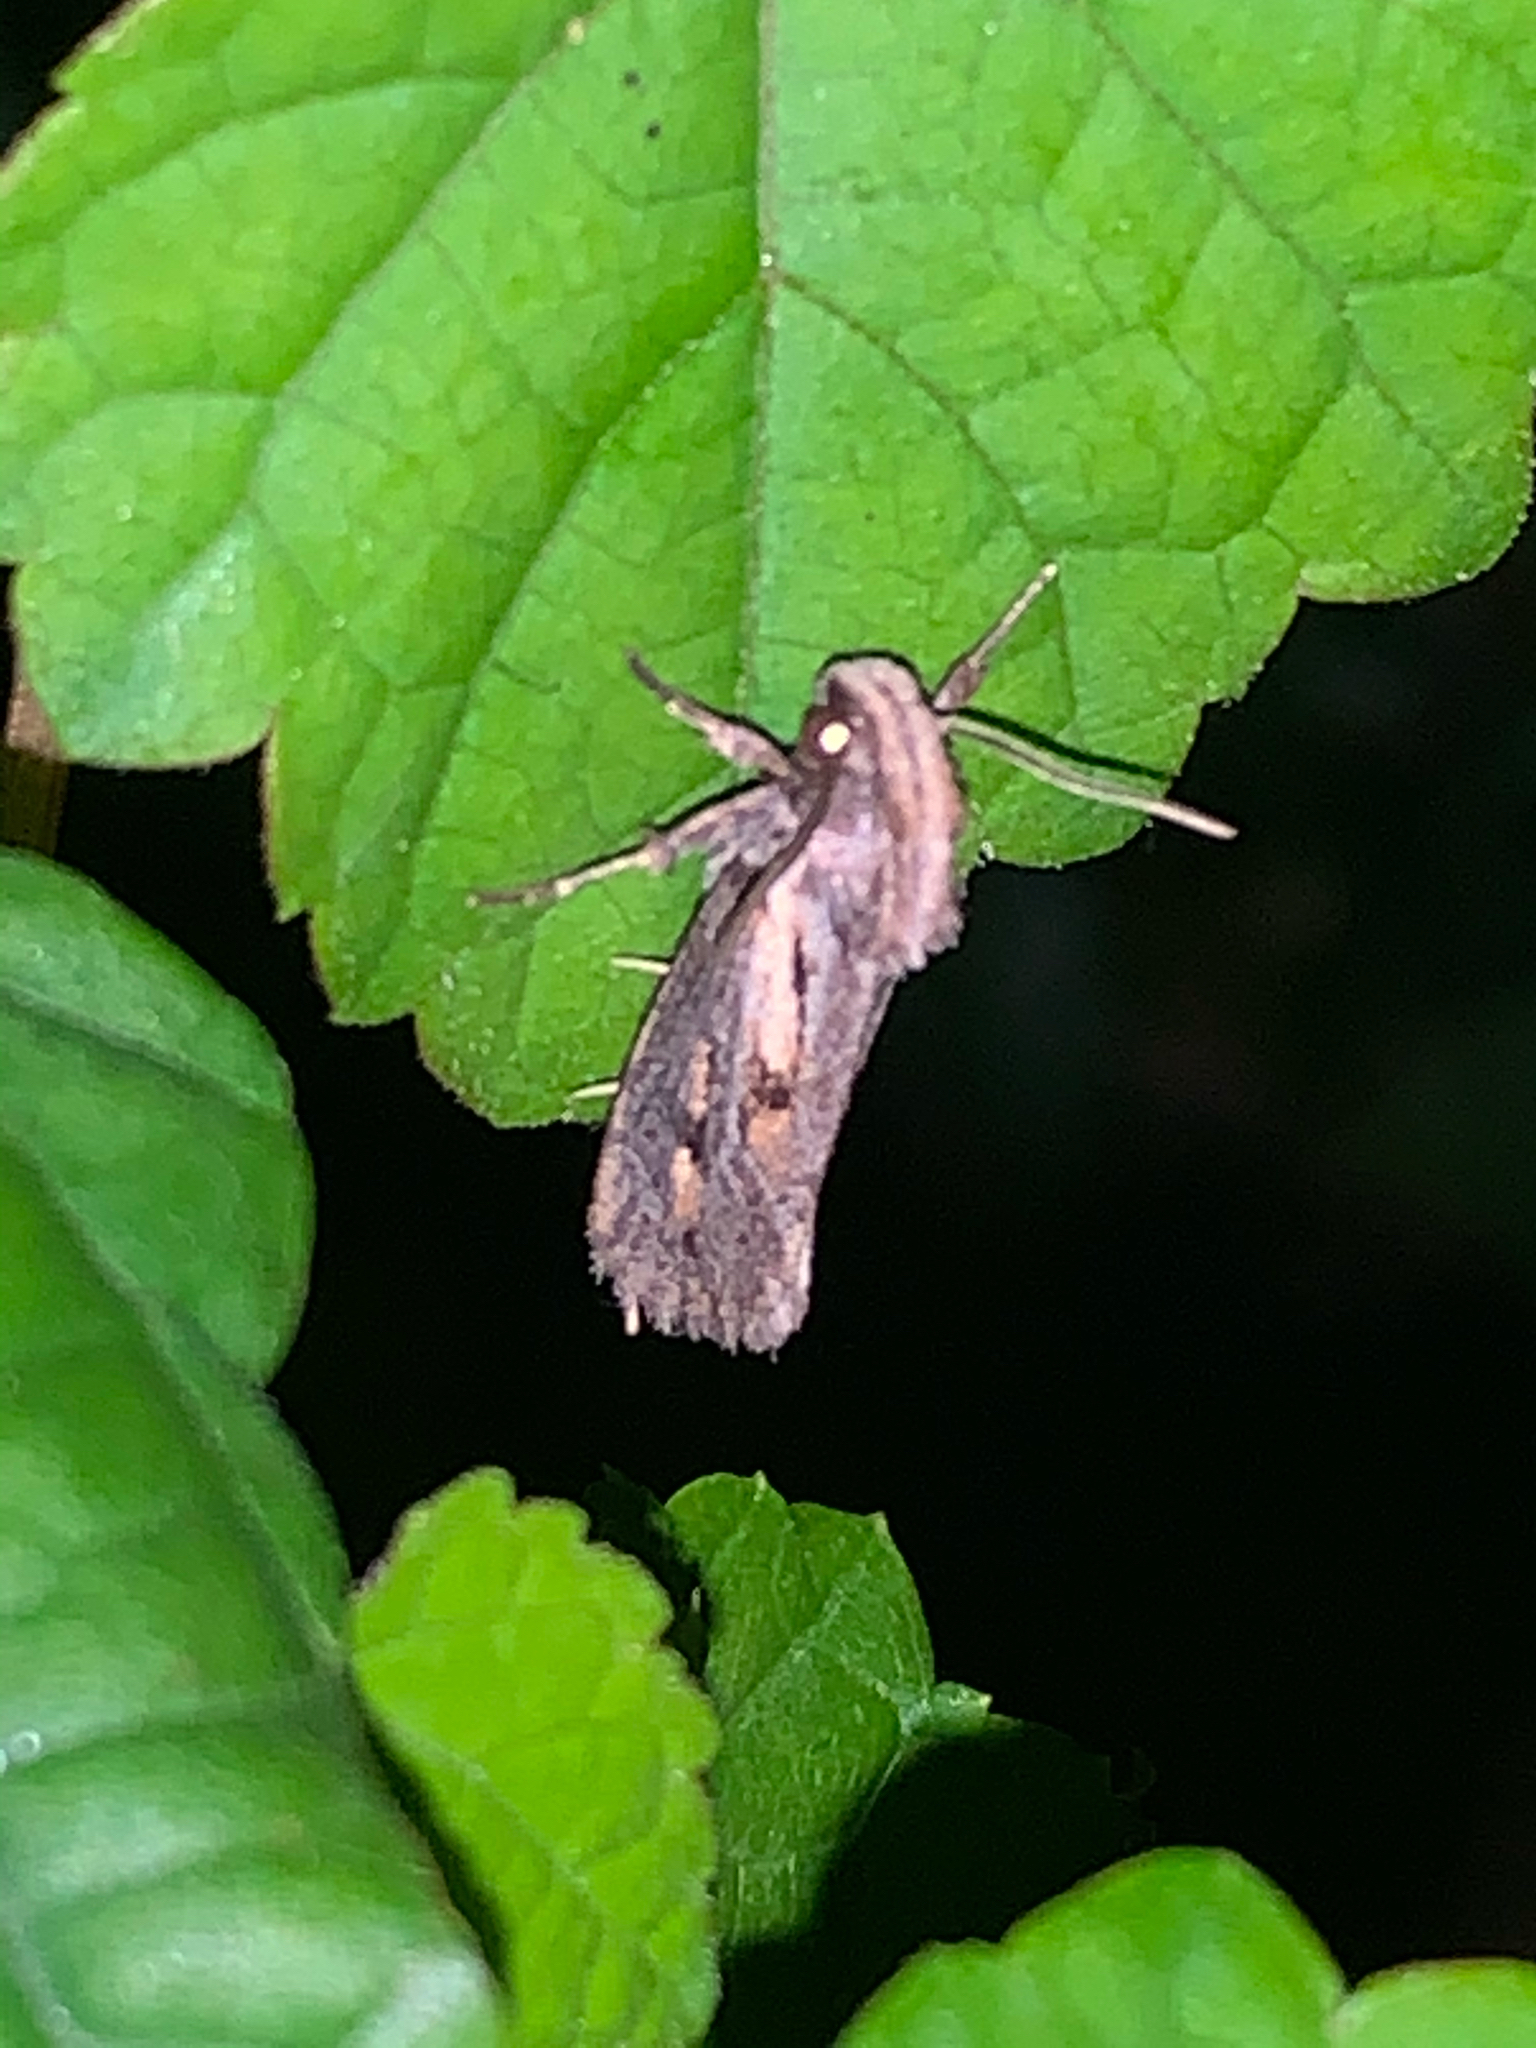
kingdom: Animalia
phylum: Arthropoda
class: Insecta
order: Lepidoptera
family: Tineidae
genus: Acrolophus
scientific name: Acrolophus popeanella
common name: Clemens' grass tubeworm moth
